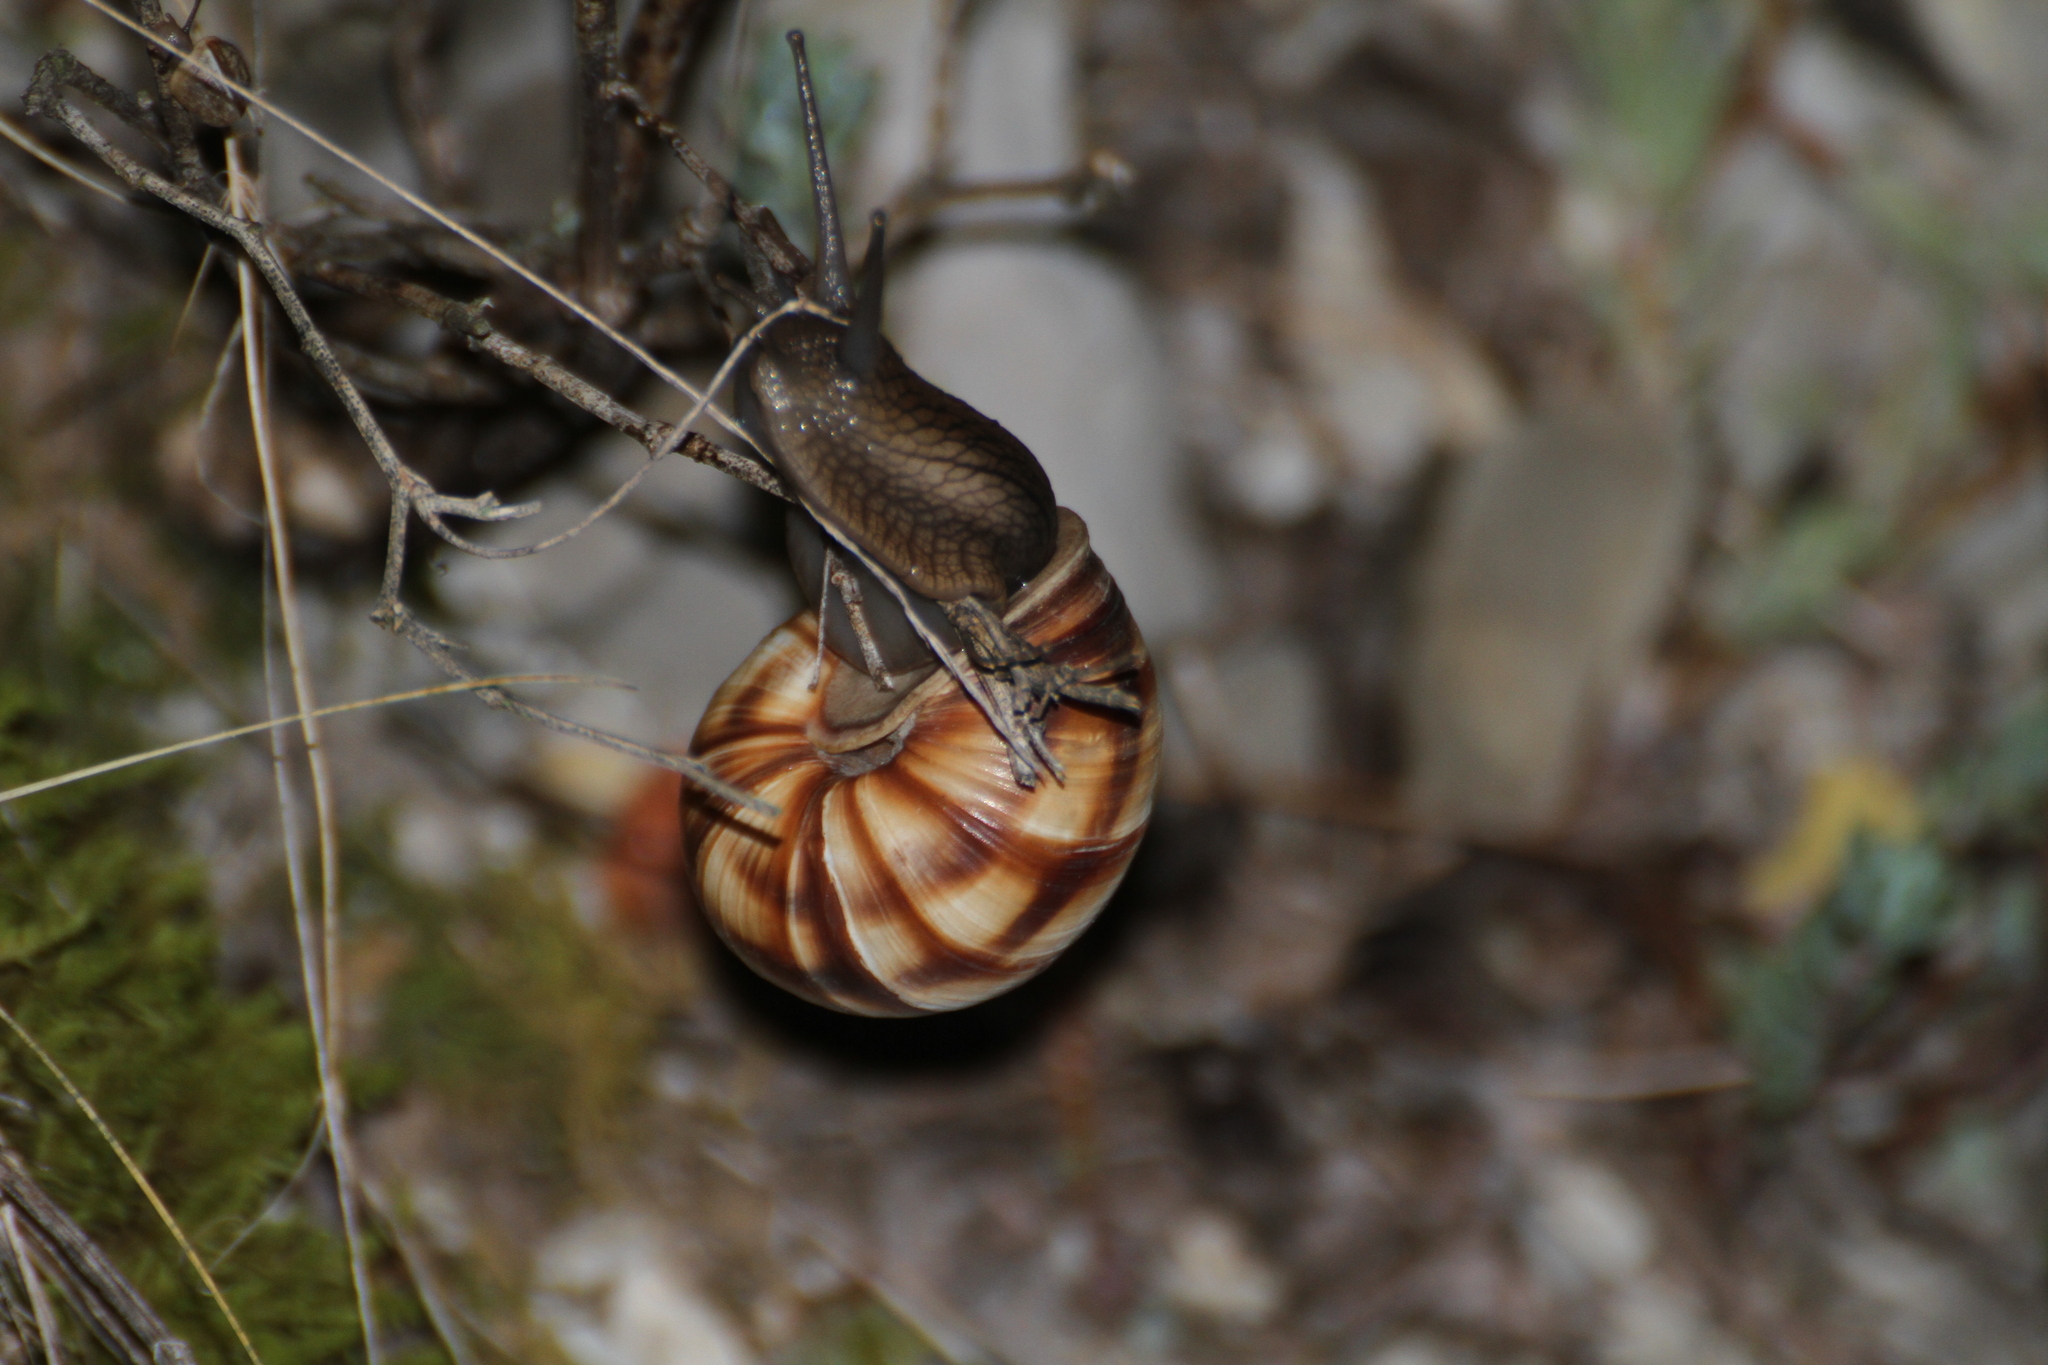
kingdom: Animalia
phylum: Mollusca
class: Gastropoda
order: Stylommatophora
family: Helicidae
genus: Helix
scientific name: Helix lucorum
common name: Turkish snail
